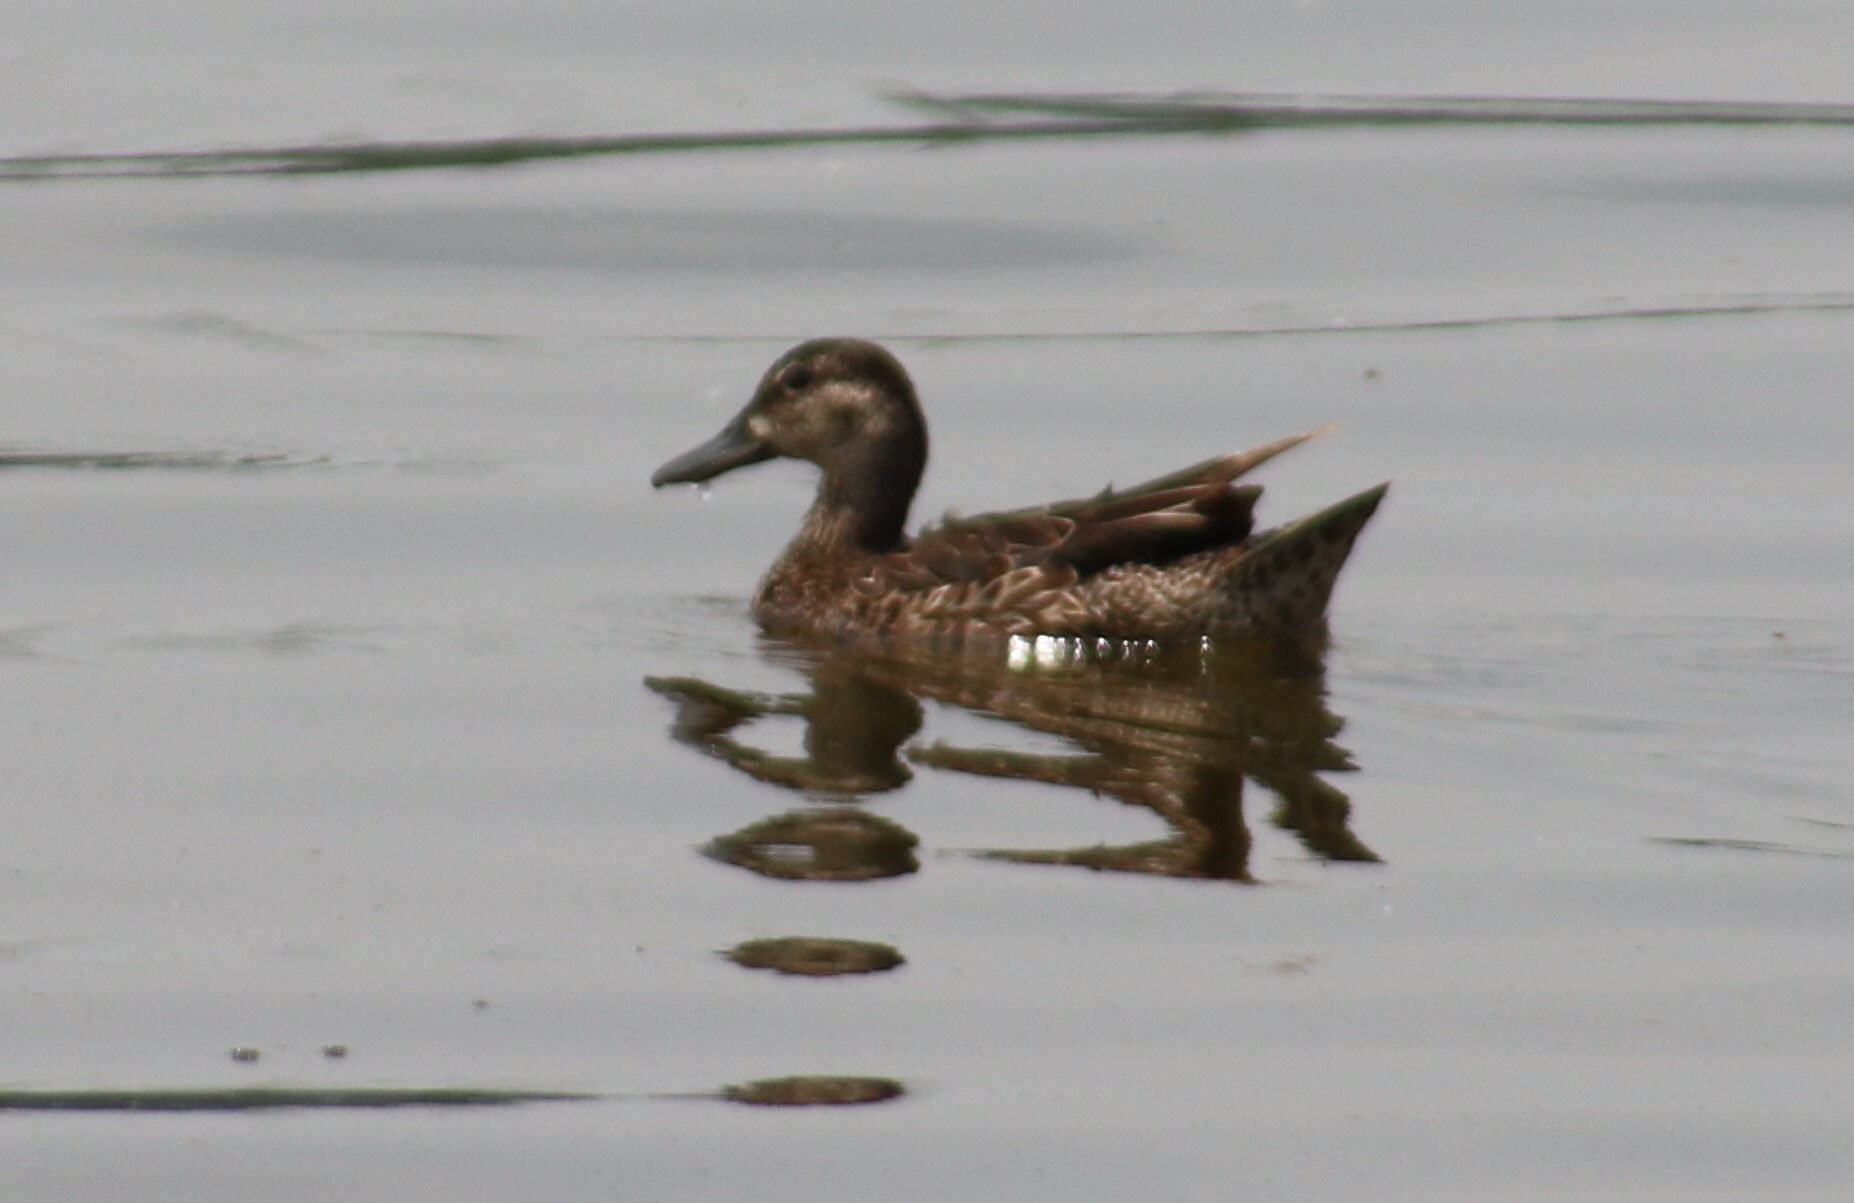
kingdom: Animalia
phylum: Chordata
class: Aves
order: Anseriformes
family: Anatidae
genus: Spatula
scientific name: Spatula discors
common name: Blue-winged teal
